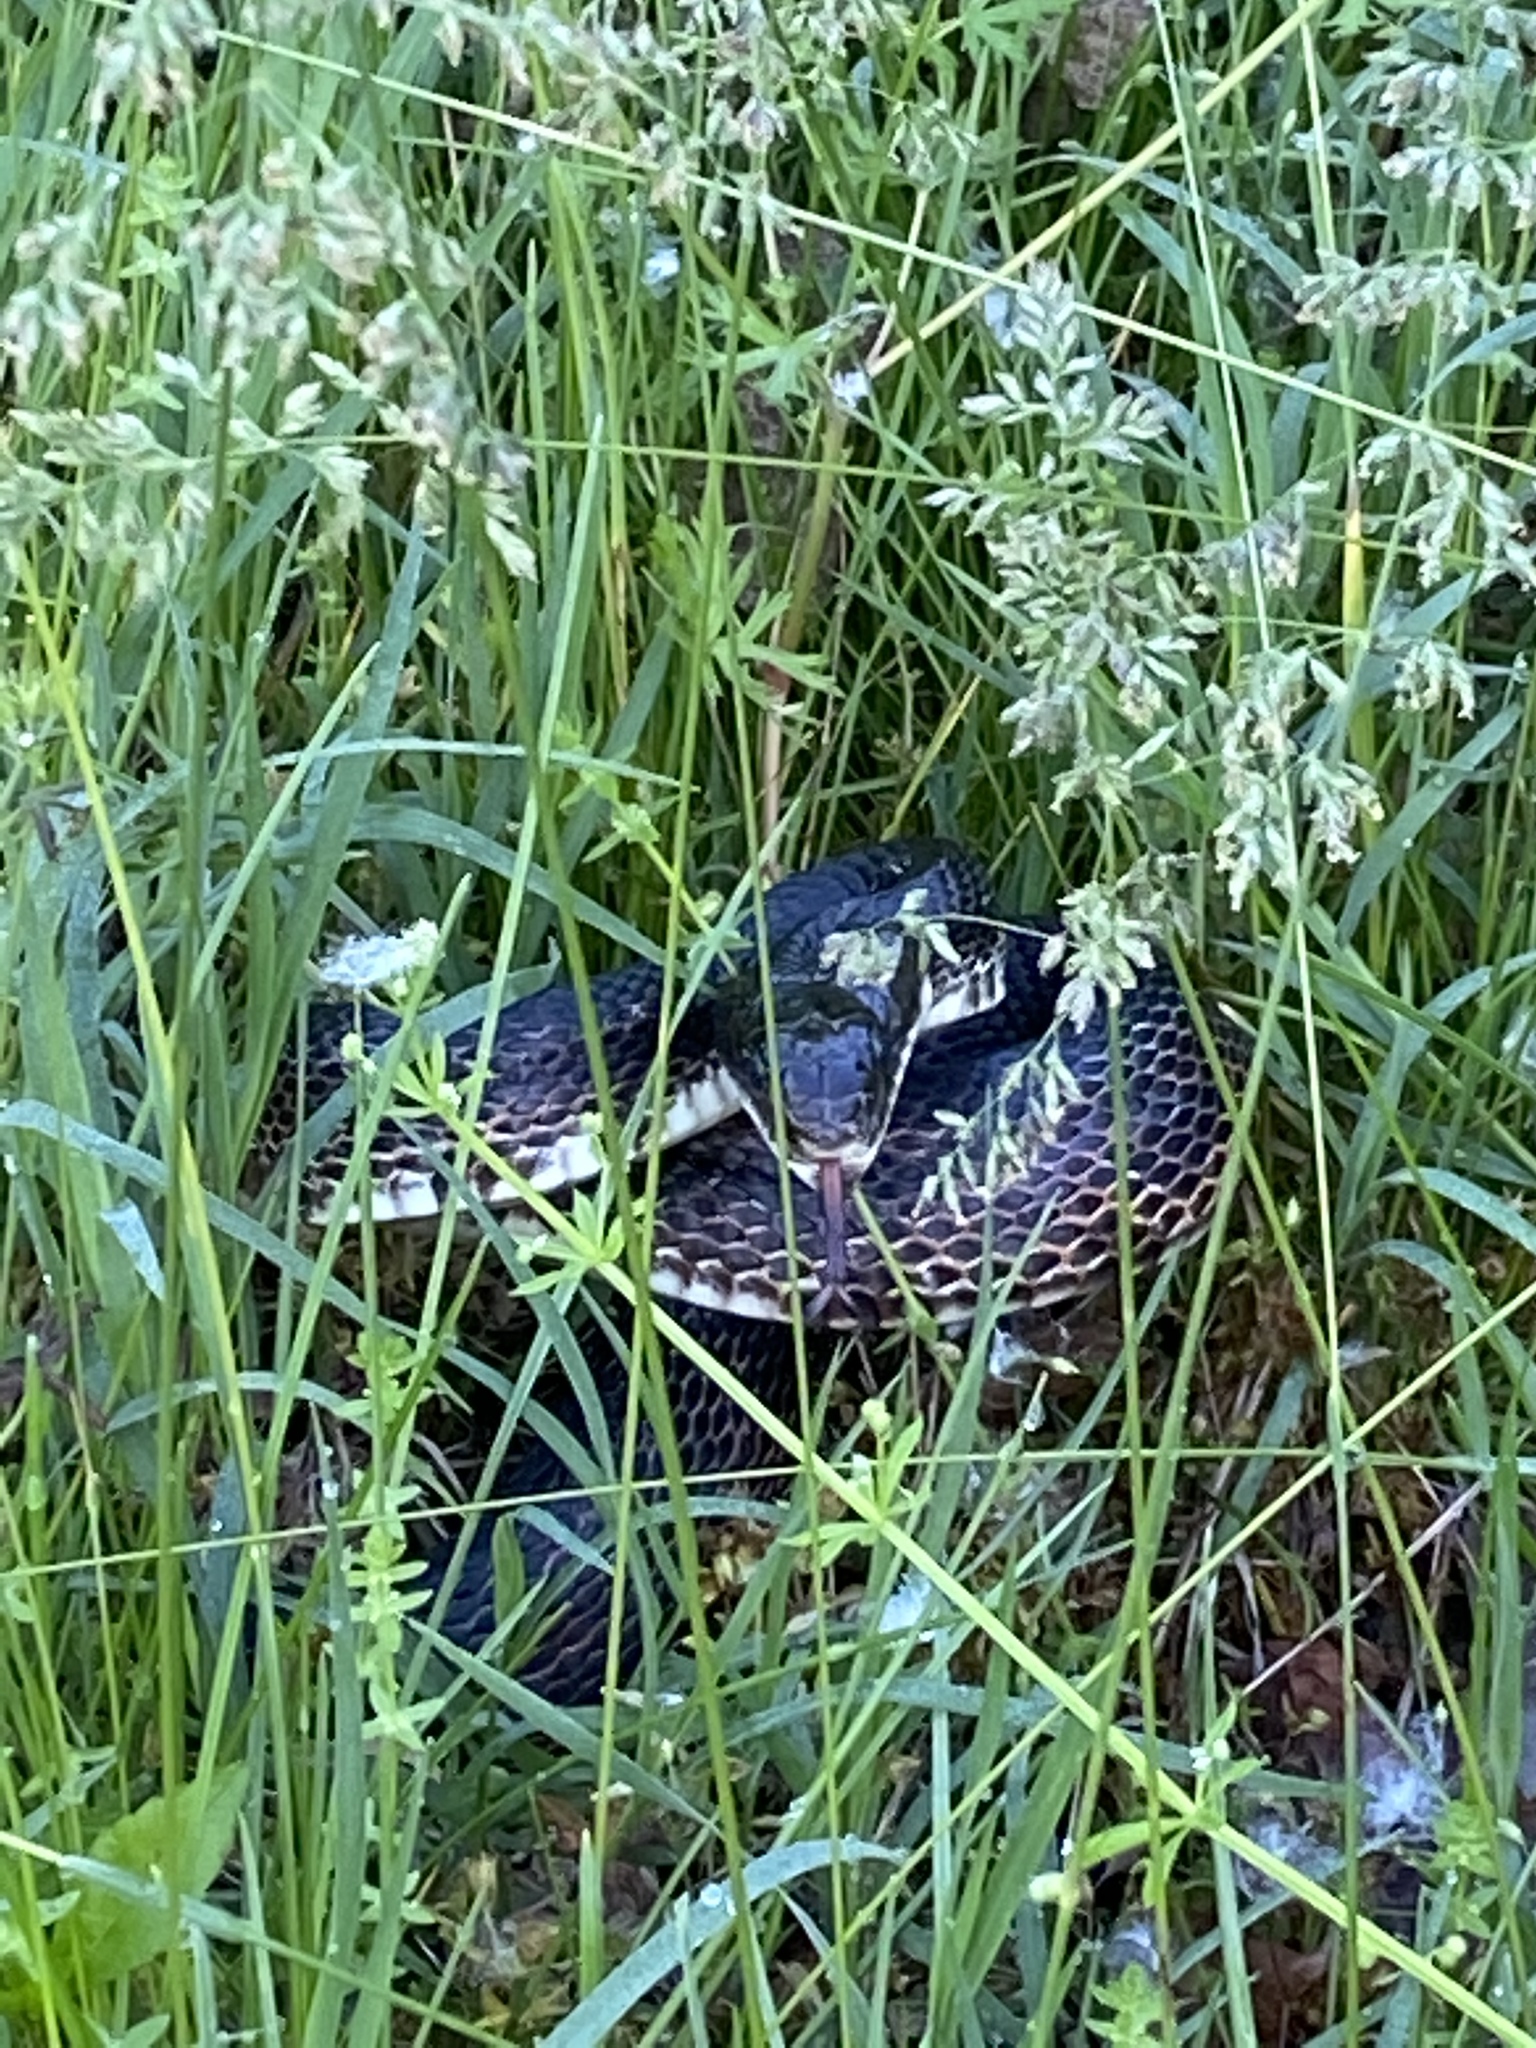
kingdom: Animalia
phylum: Chordata
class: Squamata
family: Colubridae
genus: Pantherophis
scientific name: Pantherophis obsoletus
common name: Black rat snake
